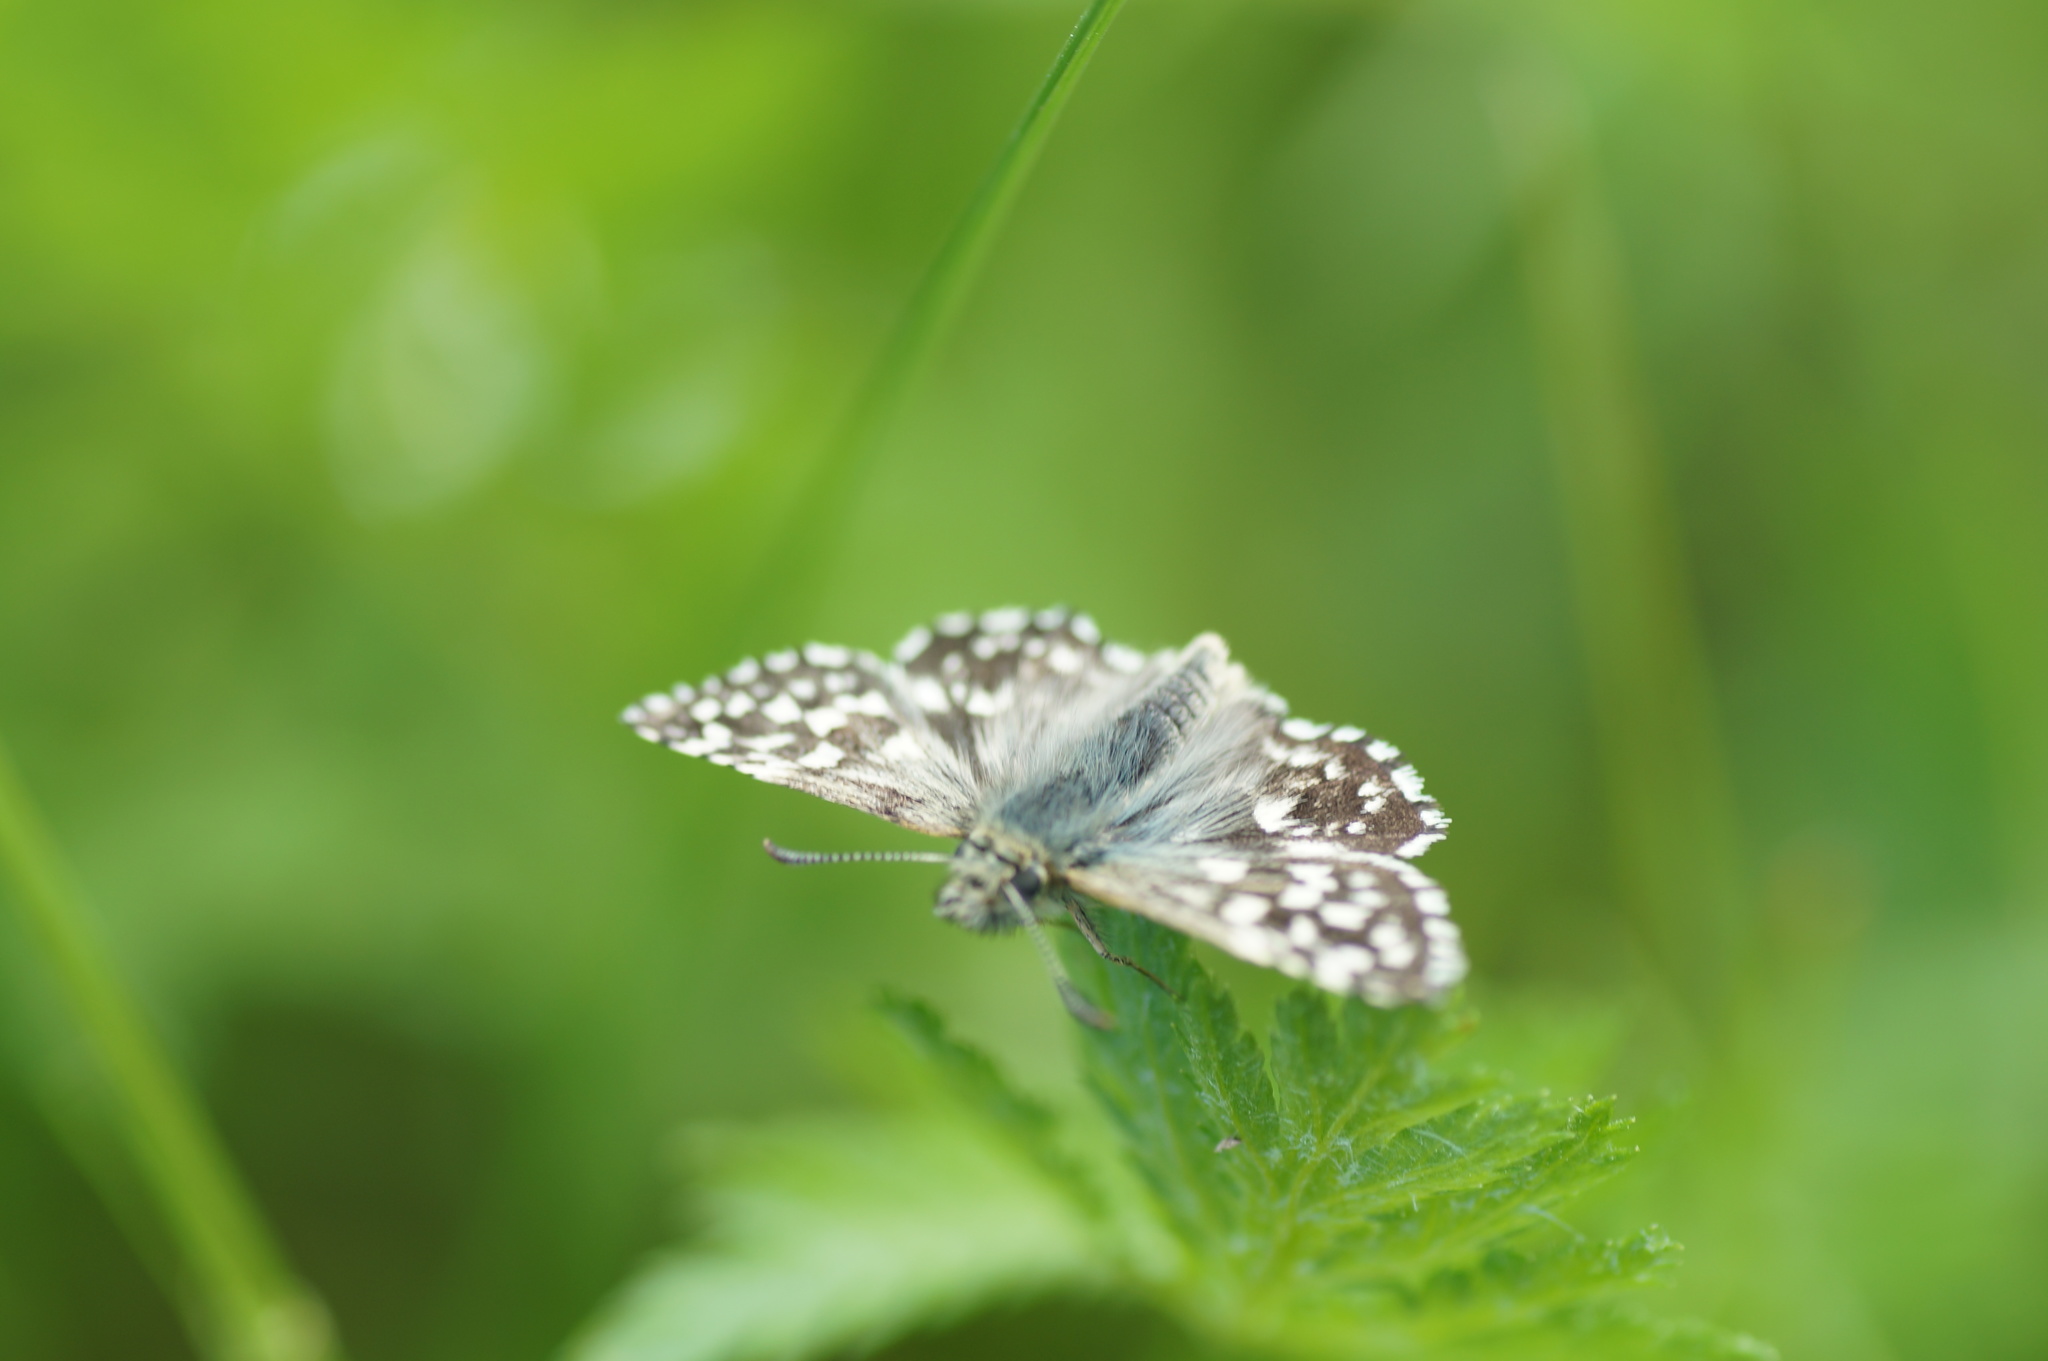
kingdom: Animalia
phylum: Arthropoda
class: Insecta
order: Lepidoptera
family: Hesperiidae
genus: Pyrgus
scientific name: Pyrgus malvae
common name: Grizzled skipper
